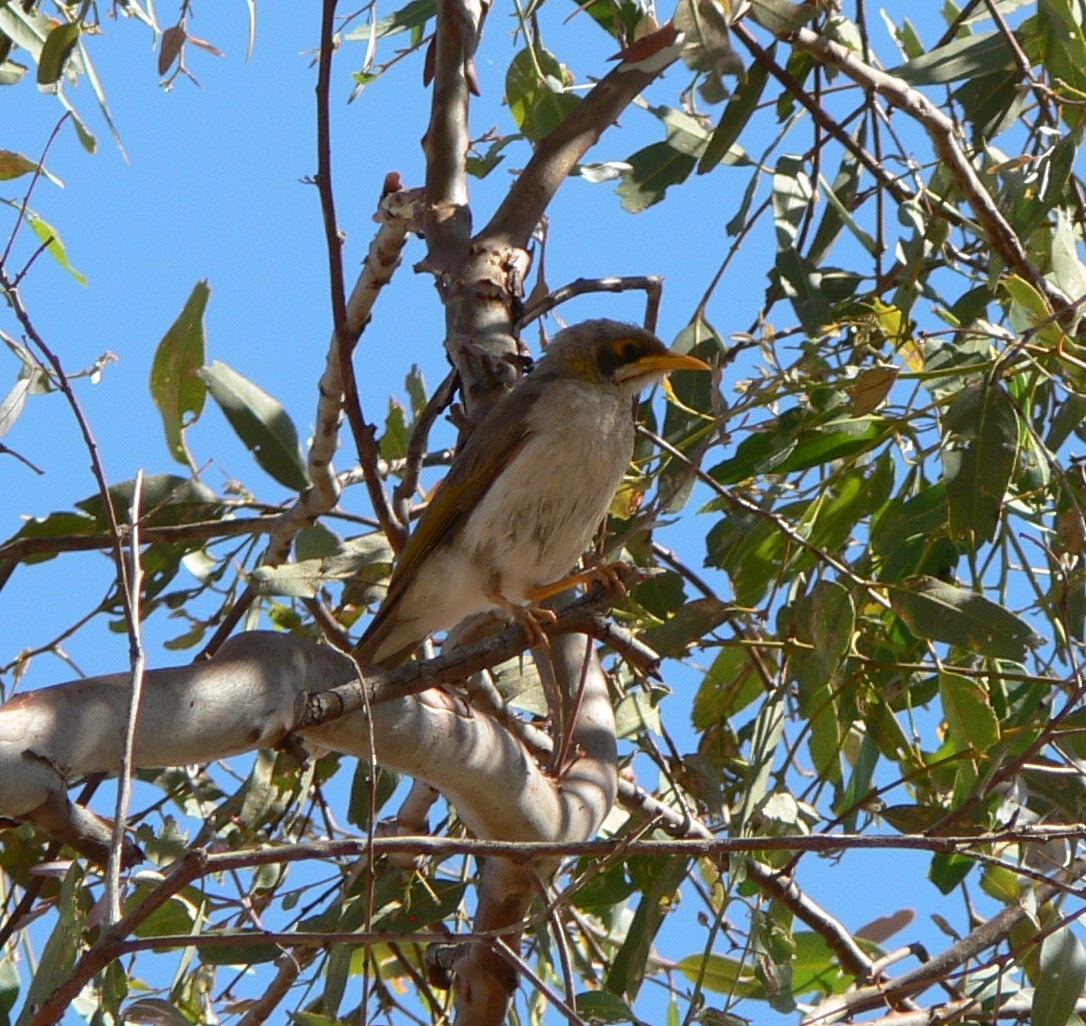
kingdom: Animalia
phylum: Chordata
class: Aves
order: Passeriformes
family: Meliphagidae
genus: Manorina
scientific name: Manorina flavigula
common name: Yellow-throated miner
